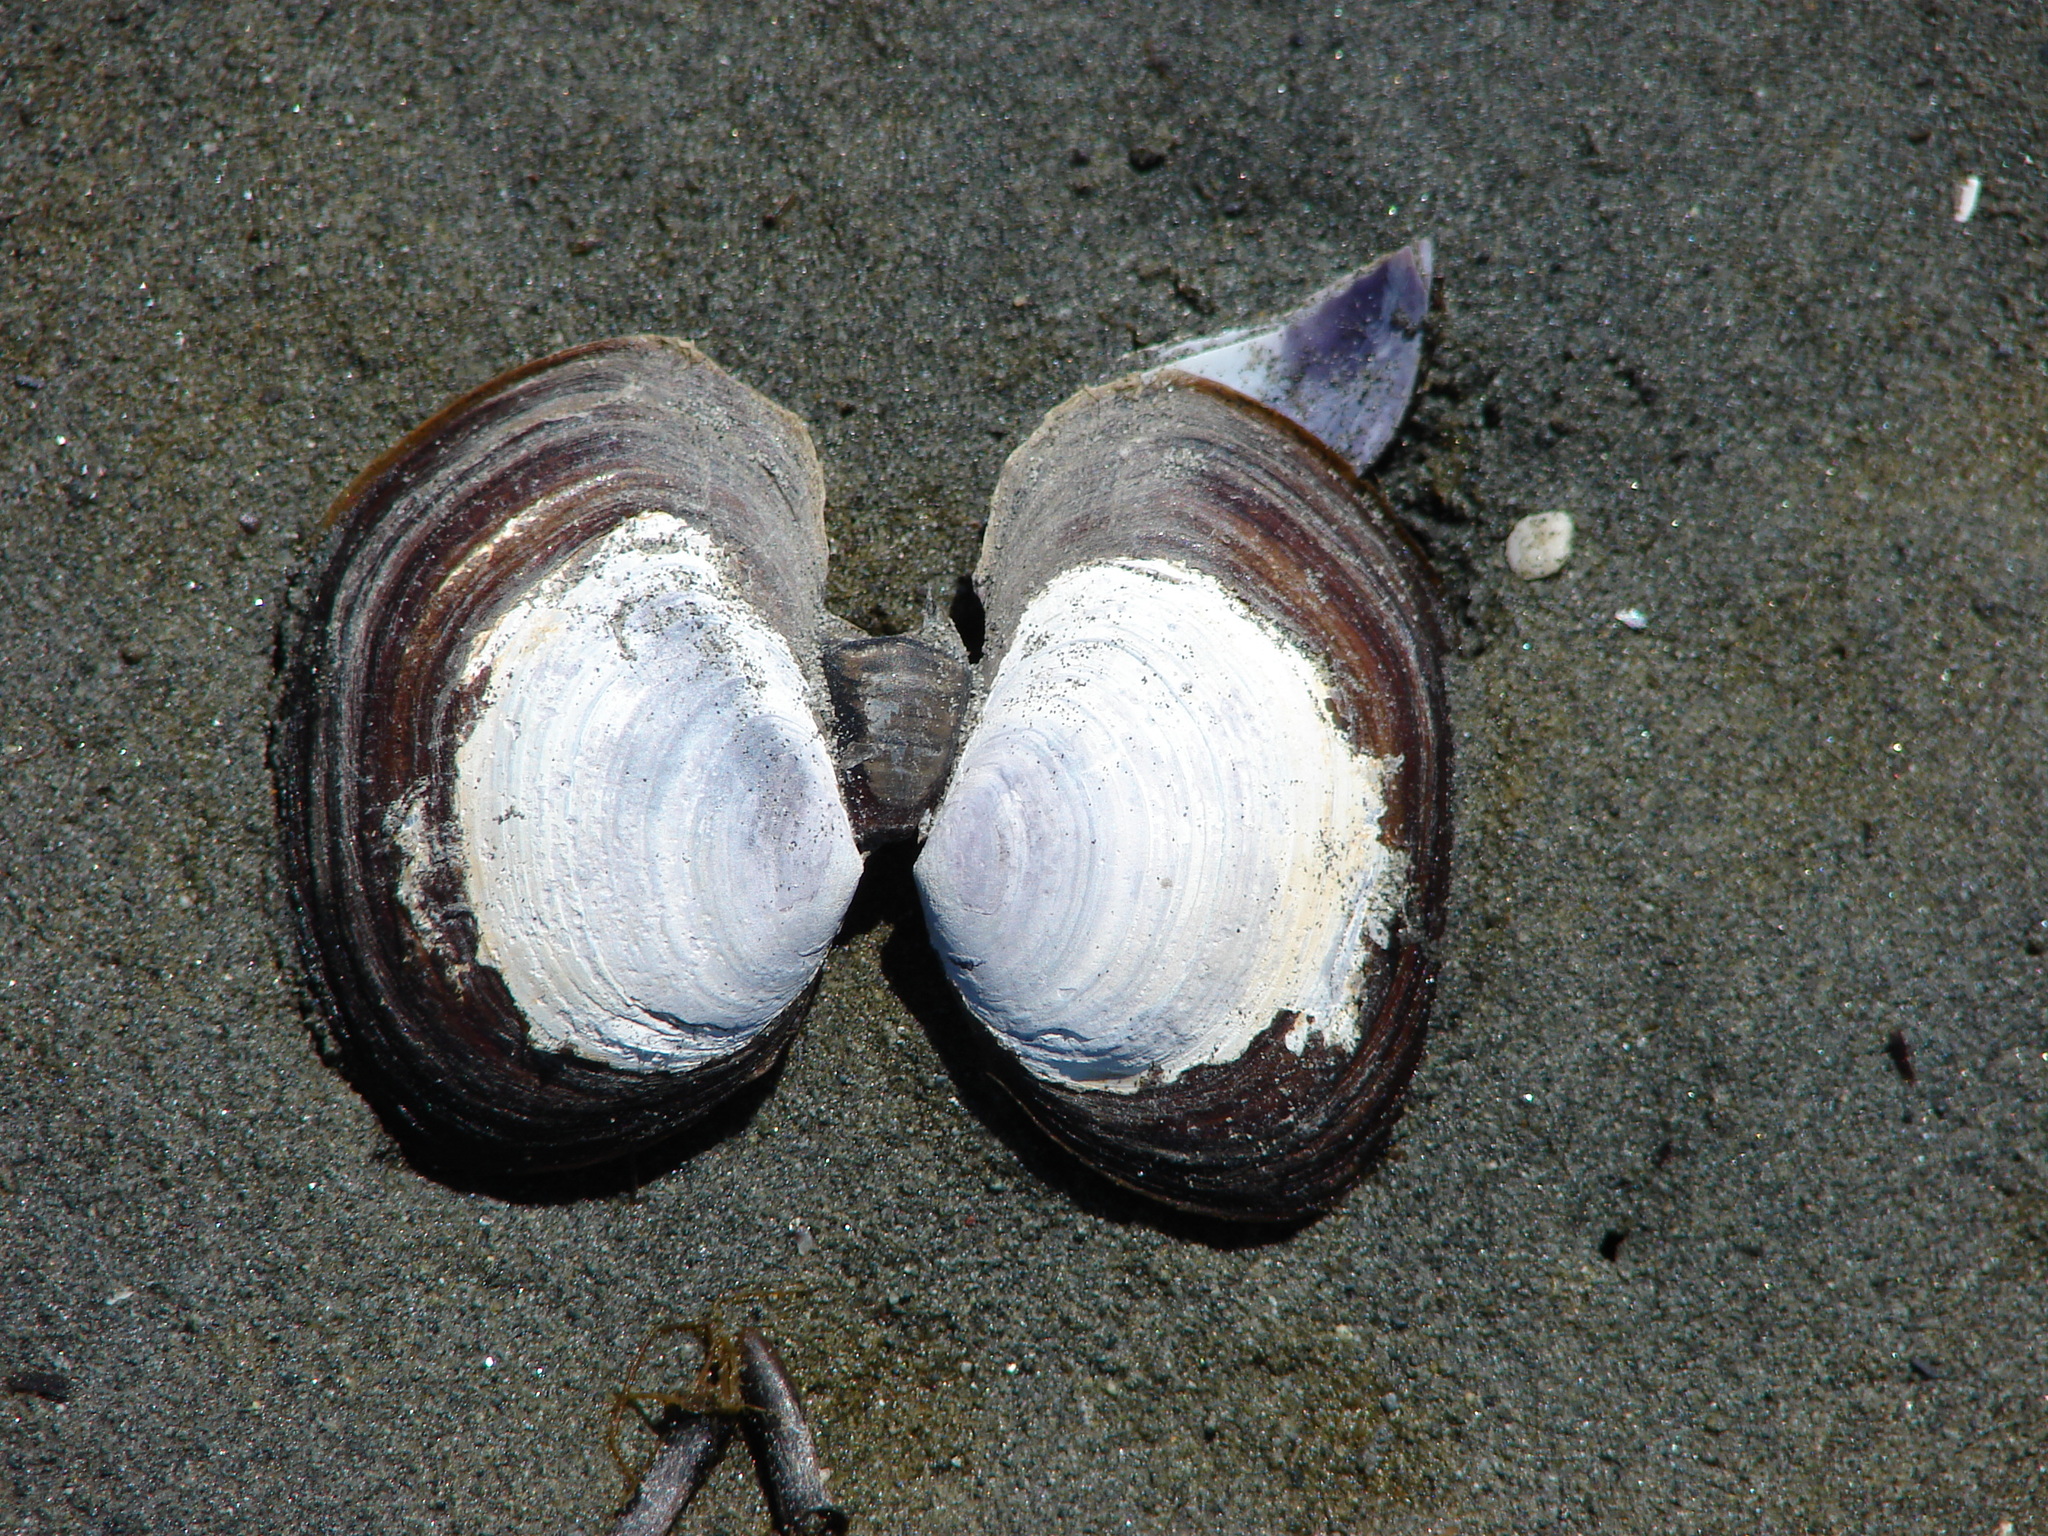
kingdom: Animalia
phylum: Mollusca
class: Bivalvia
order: Cardiida
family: Psammobiidae
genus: Nuttallia
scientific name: Nuttallia obscurata
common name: Purple mahogany-clam
